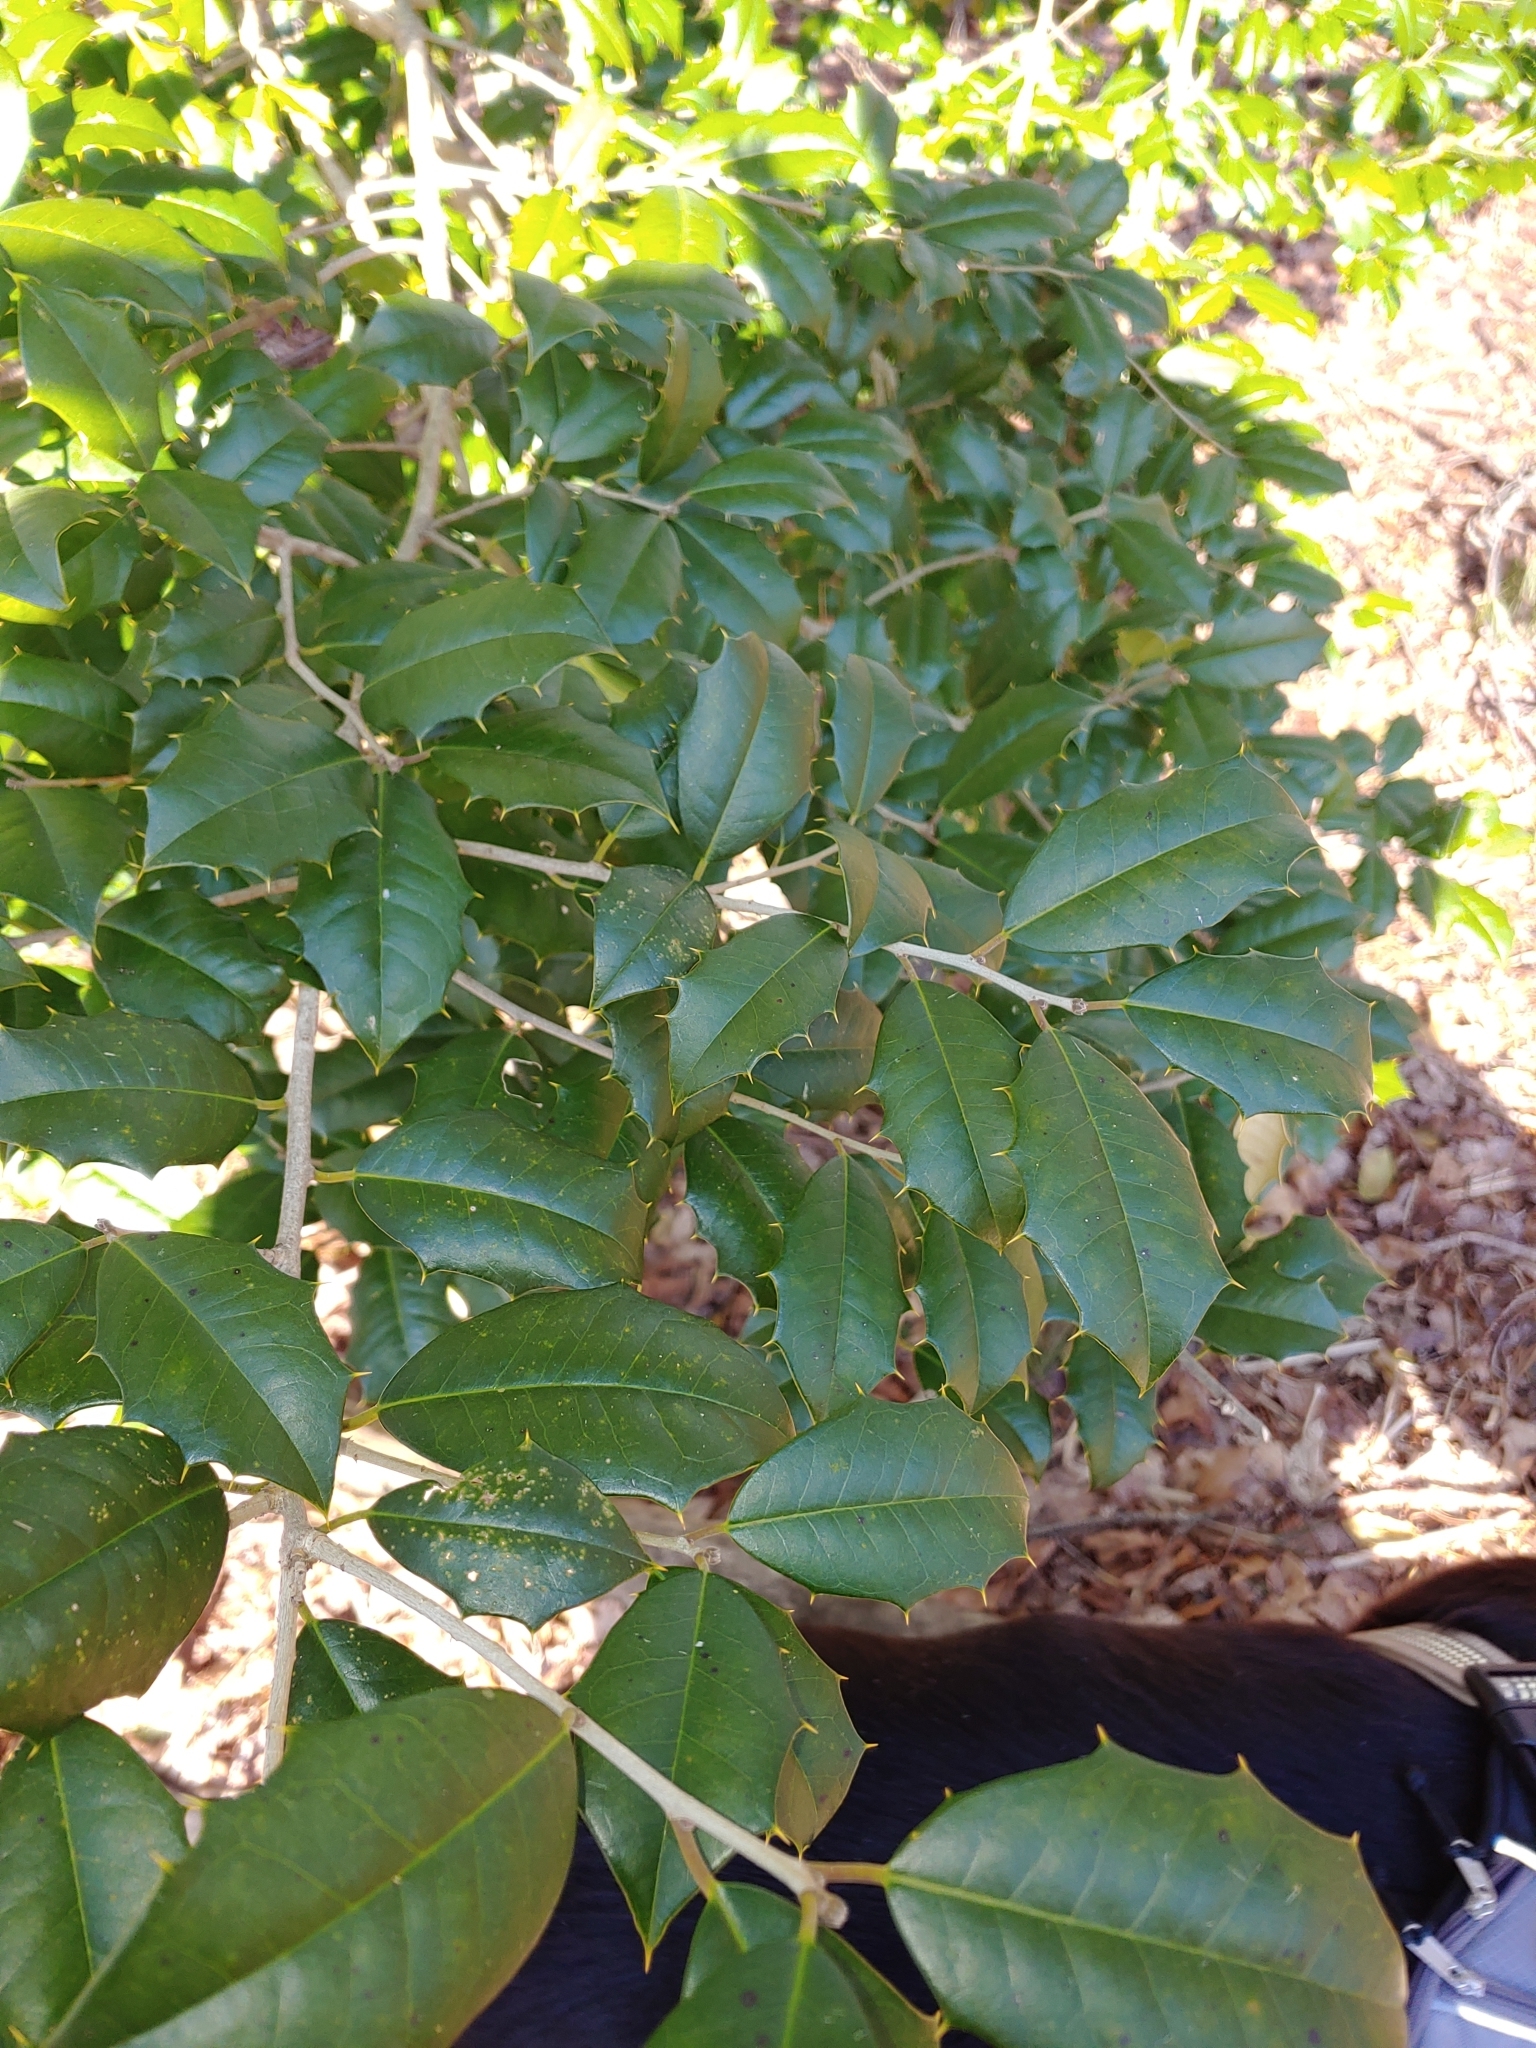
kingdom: Plantae
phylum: Tracheophyta
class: Magnoliopsida
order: Aquifoliales
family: Aquifoliaceae
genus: Ilex
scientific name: Ilex opaca
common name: American holly
